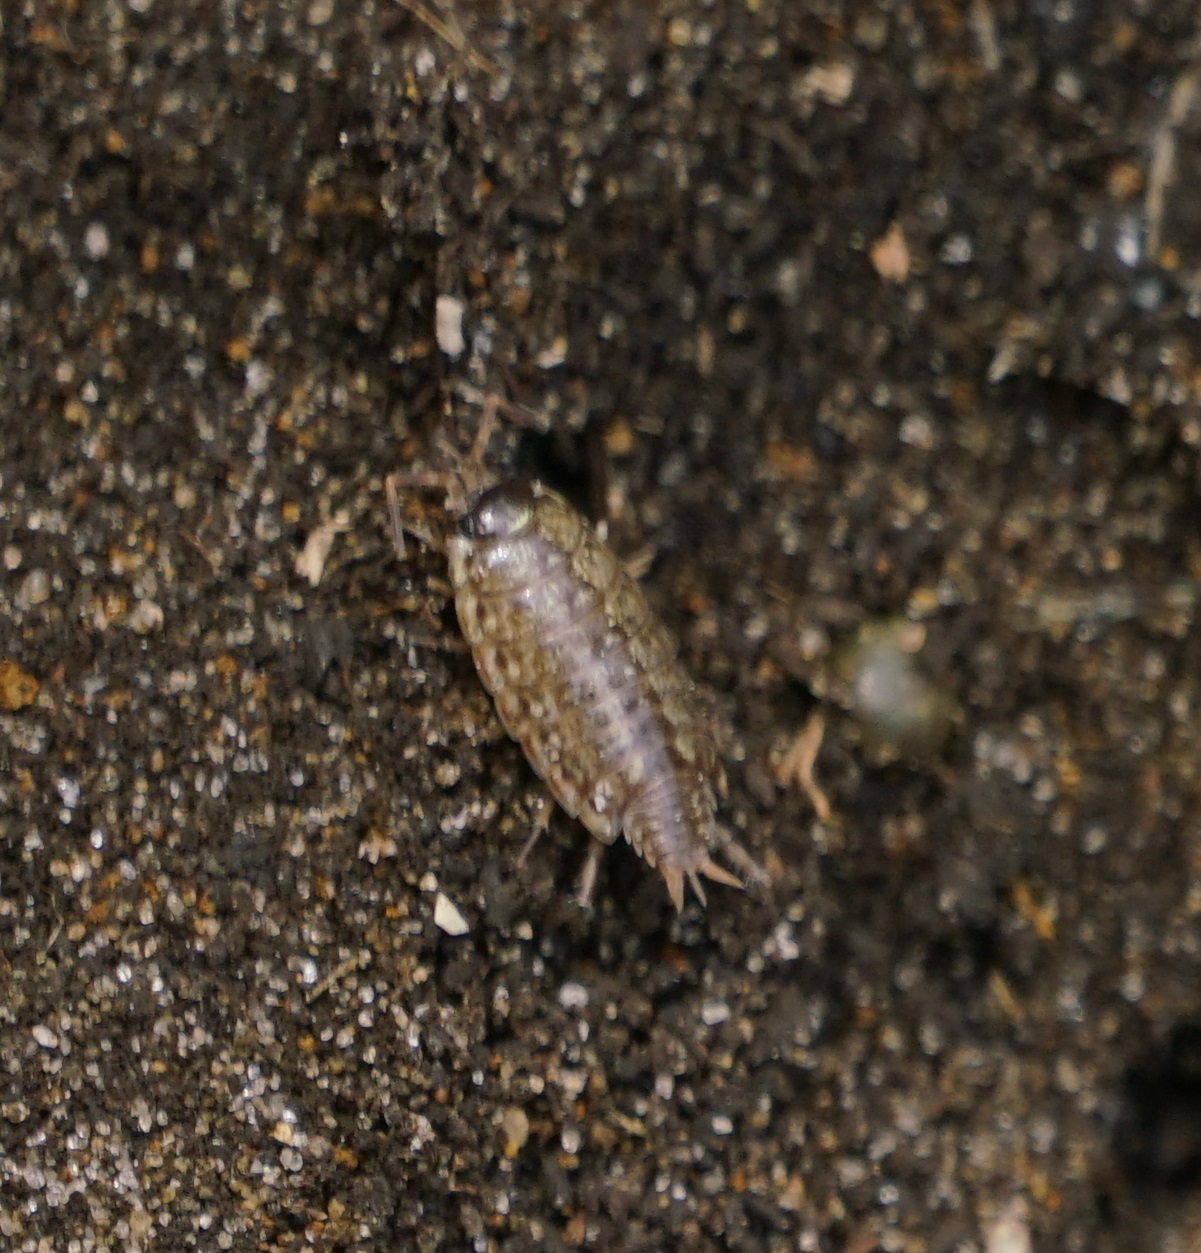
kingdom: Animalia
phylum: Arthropoda
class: Malacostraca
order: Isopoda
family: Philosciidae
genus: Philoscia
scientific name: Philoscia muscorum
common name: Common striped woodlouse
